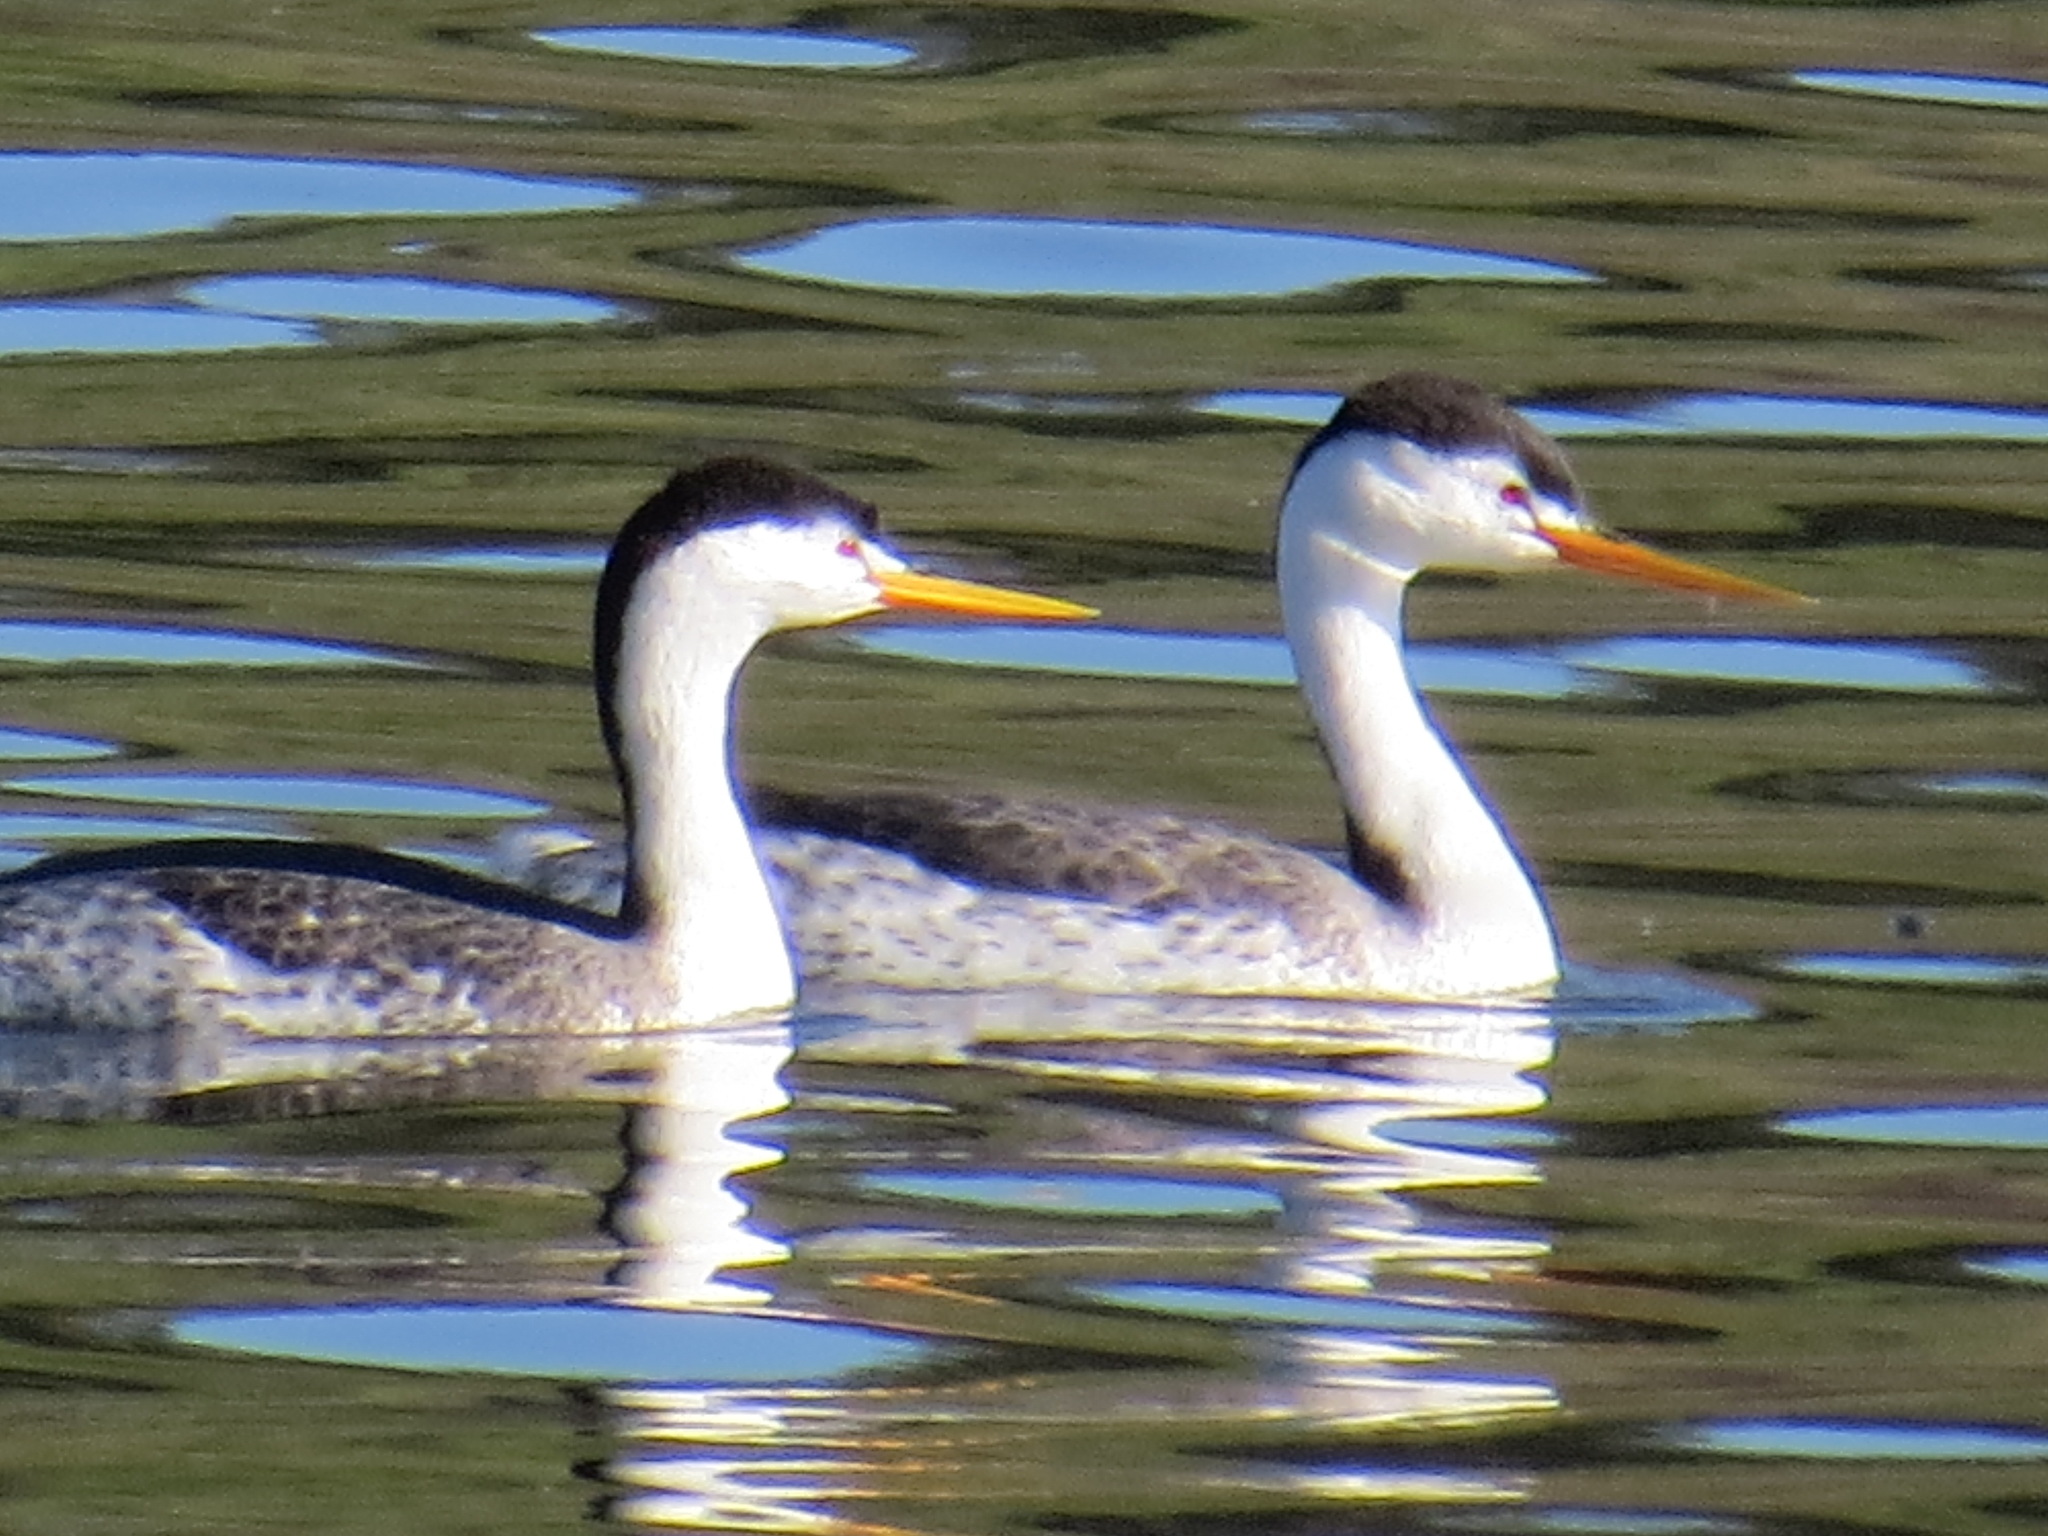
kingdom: Animalia
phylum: Chordata
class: Aves
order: Podicipediformes
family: Podicipedidae
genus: Aechmophorus
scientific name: Aechmophorus clarkii
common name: Clark's grebe
